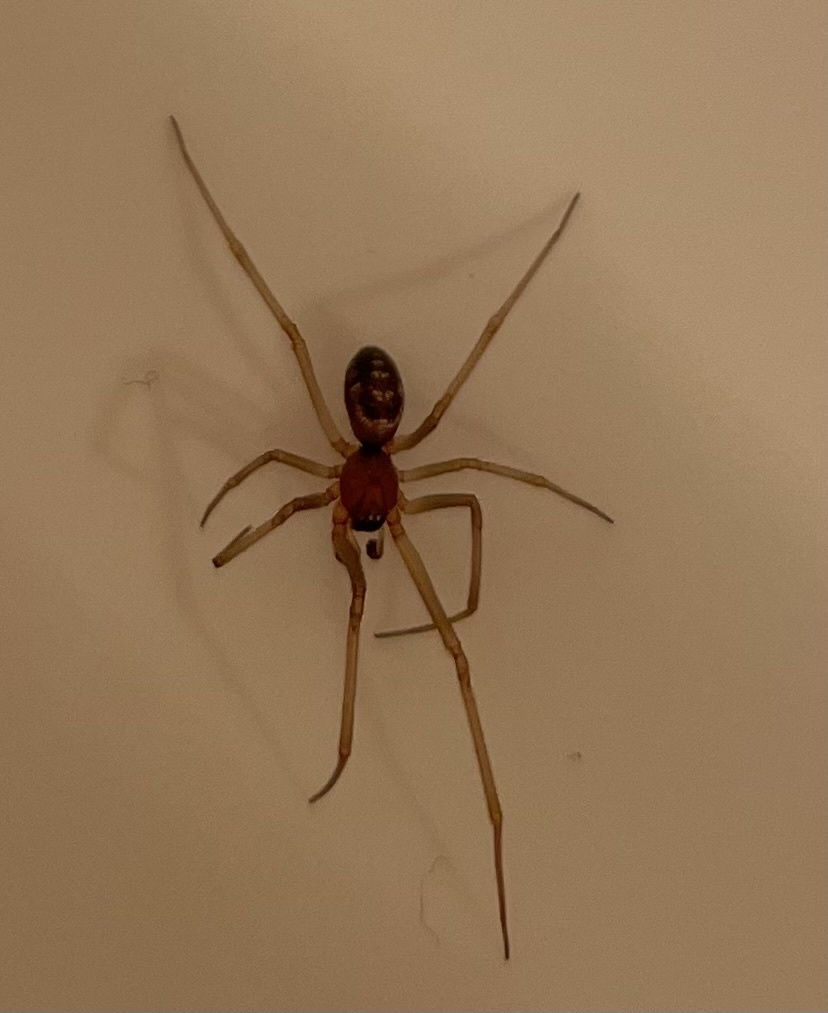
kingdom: Animalia
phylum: Arthropoda
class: Arachnida
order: Araneae
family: Theridiidae
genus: Steatoda
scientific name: Steatoda grossa
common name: False black widow
